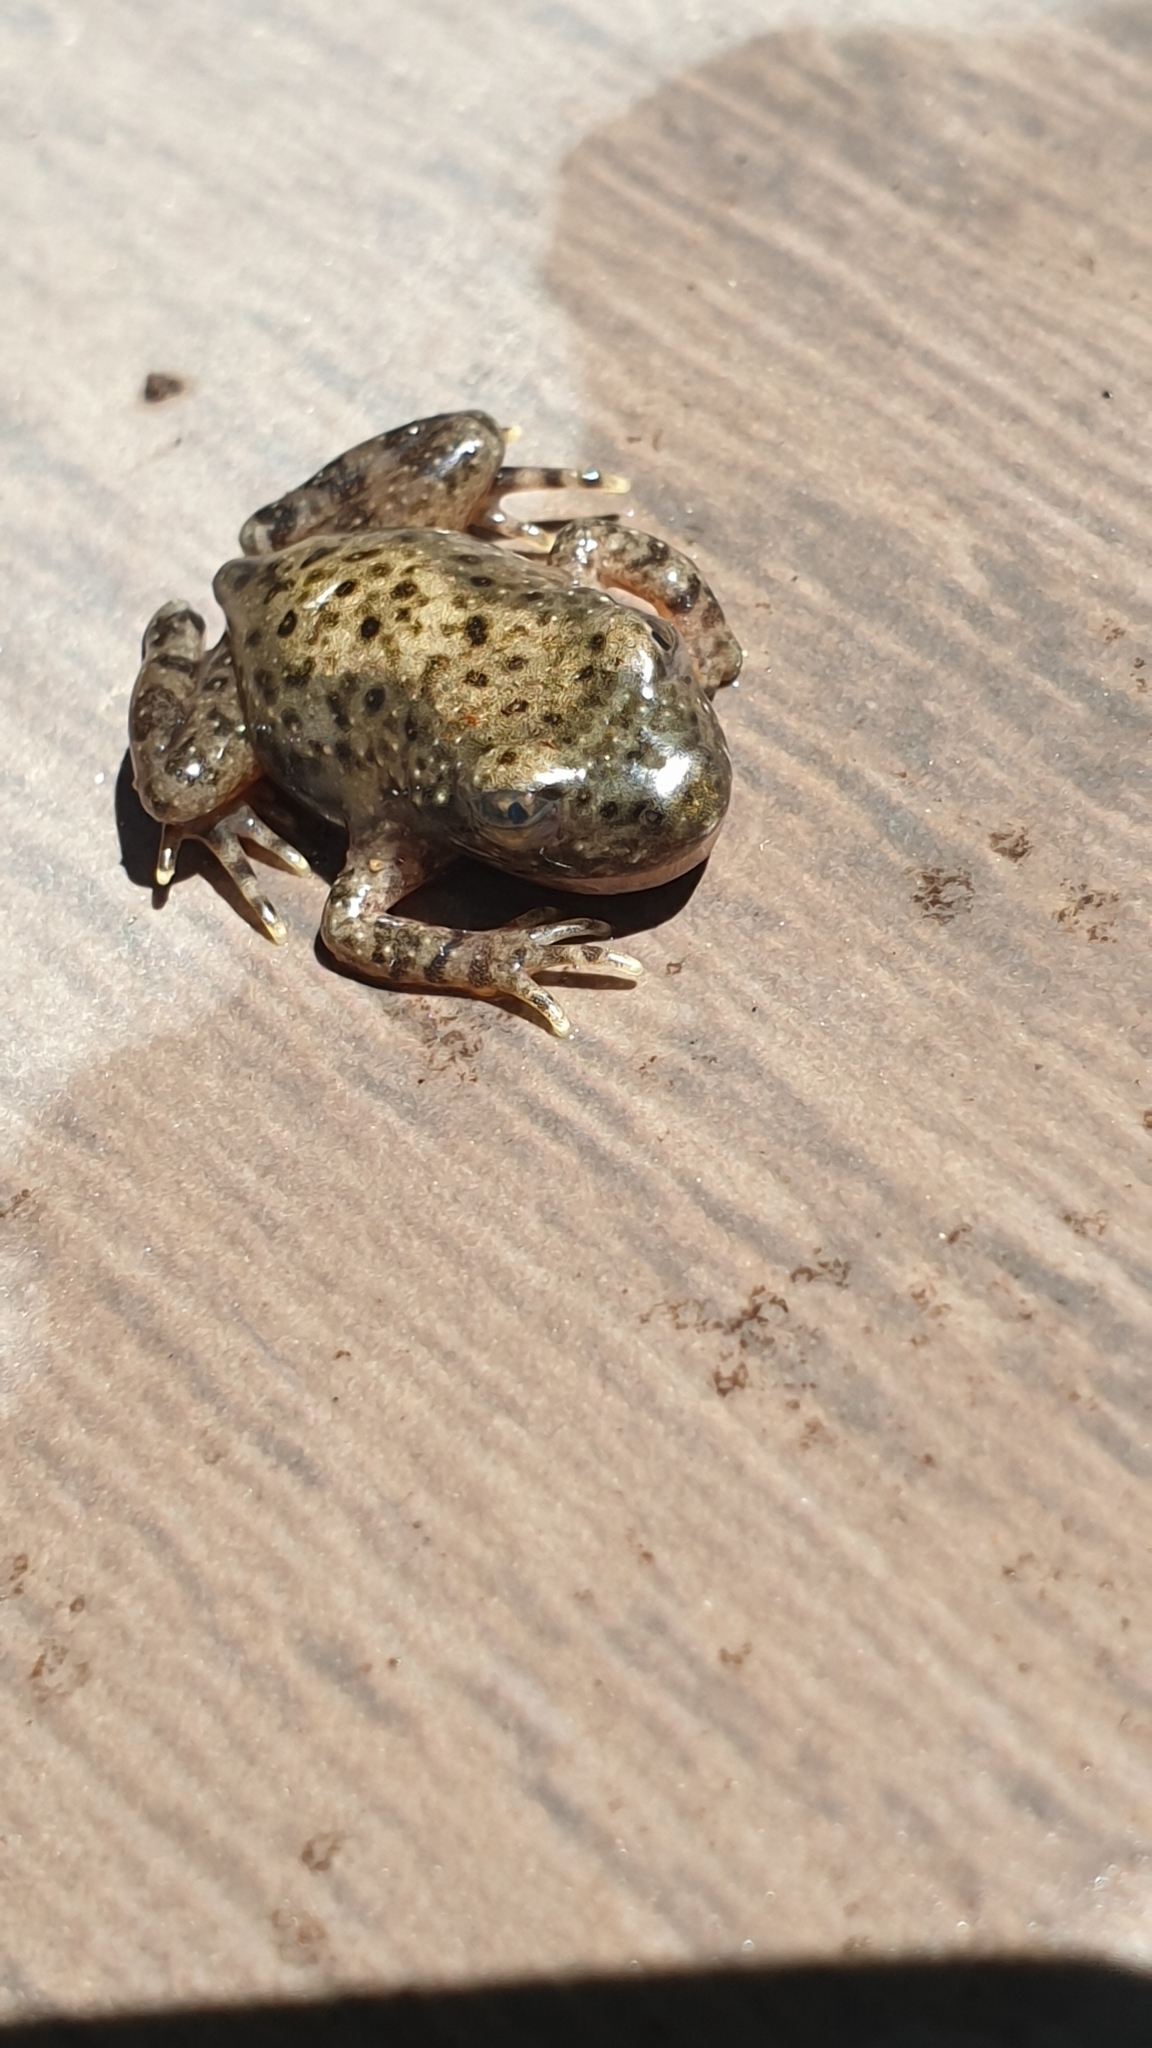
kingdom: Animalia
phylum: Chordata
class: Amphibia
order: Anura
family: Alytidae
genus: Alytes
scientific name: Alytes obstetricans
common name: Midwife toad
